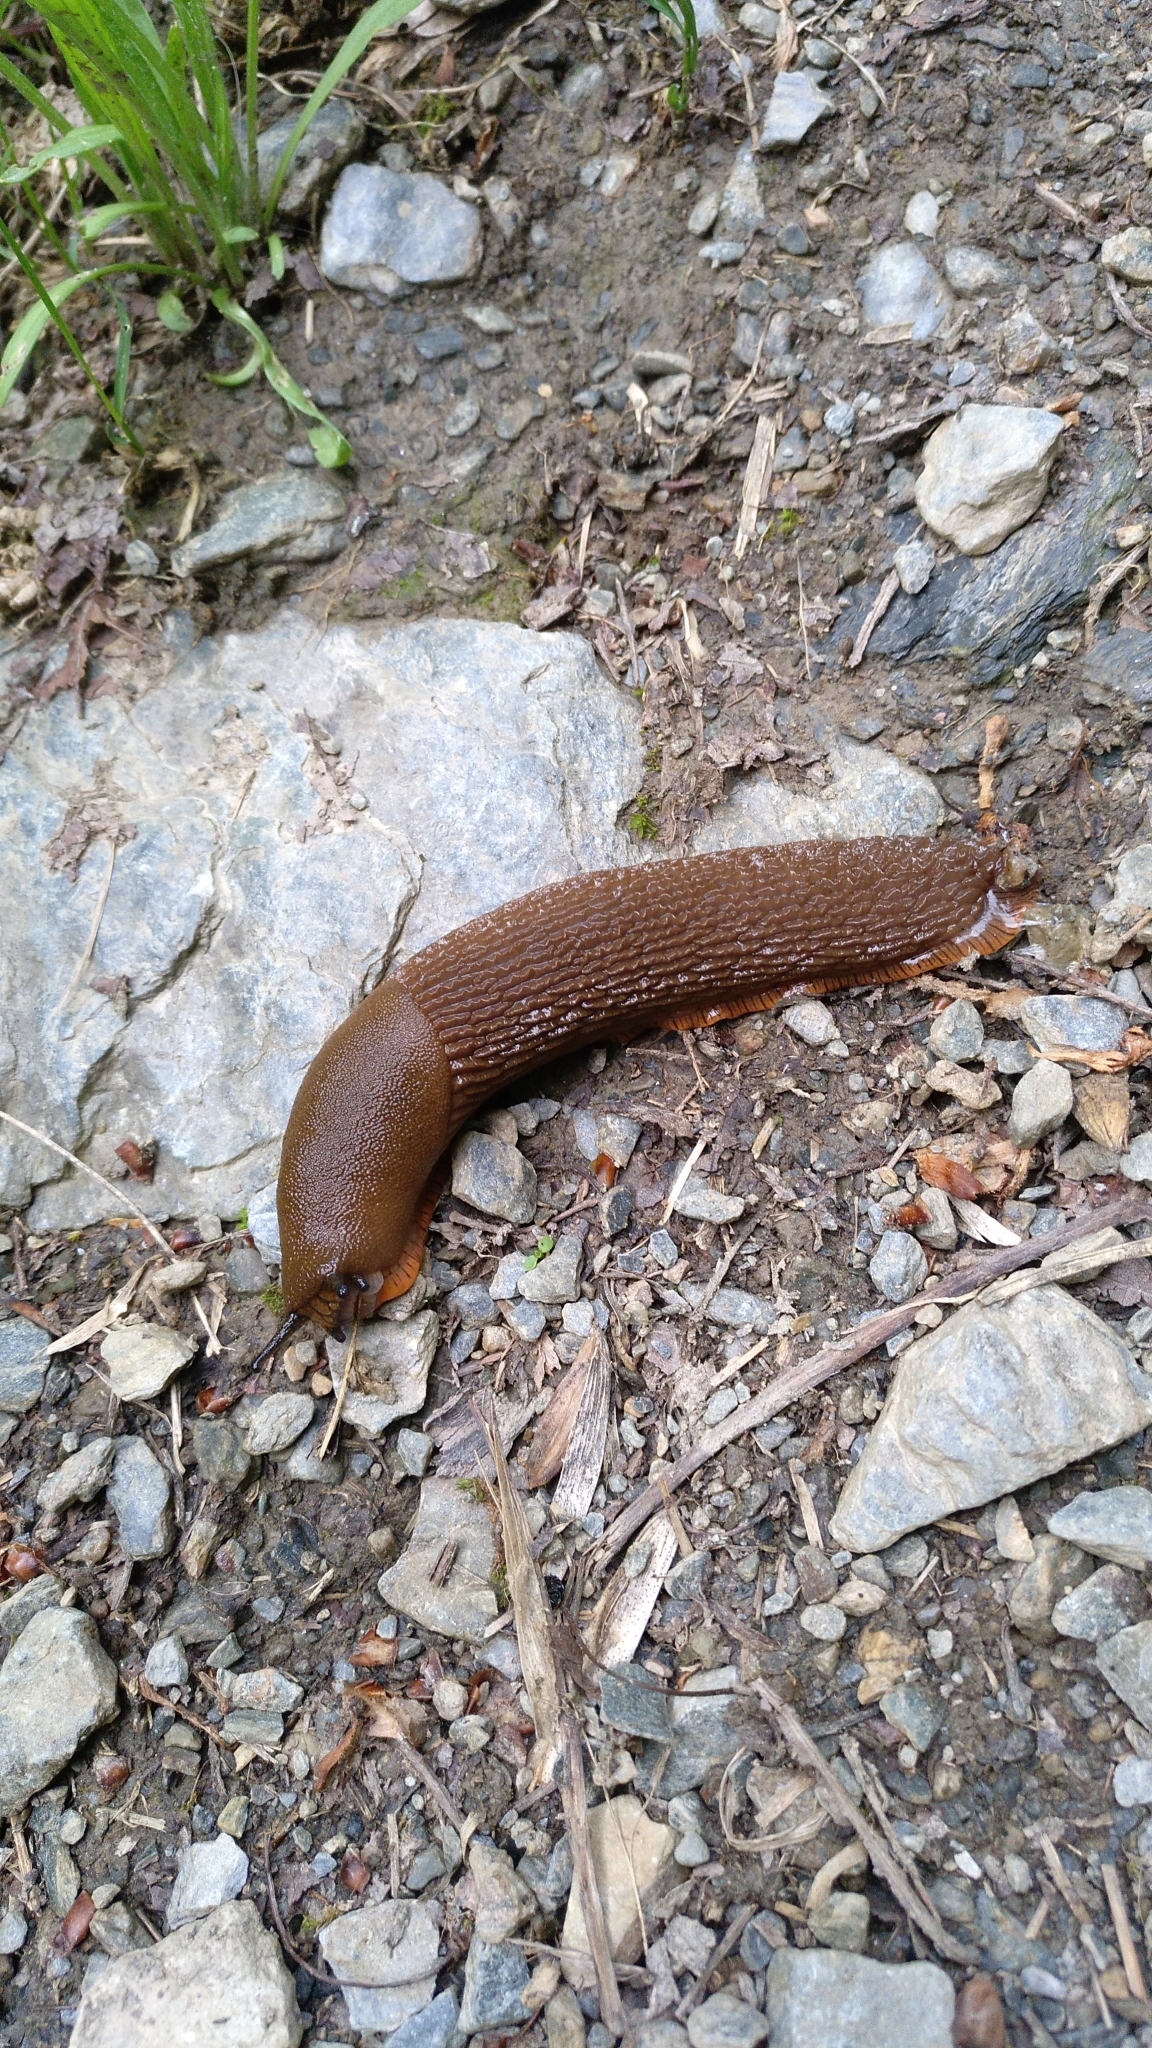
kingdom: Animalia
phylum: Mollusca
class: Gastropoda
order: Stylommatophora
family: Arionidae
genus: Arion
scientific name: Arion rufus
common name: Chocolate arion
